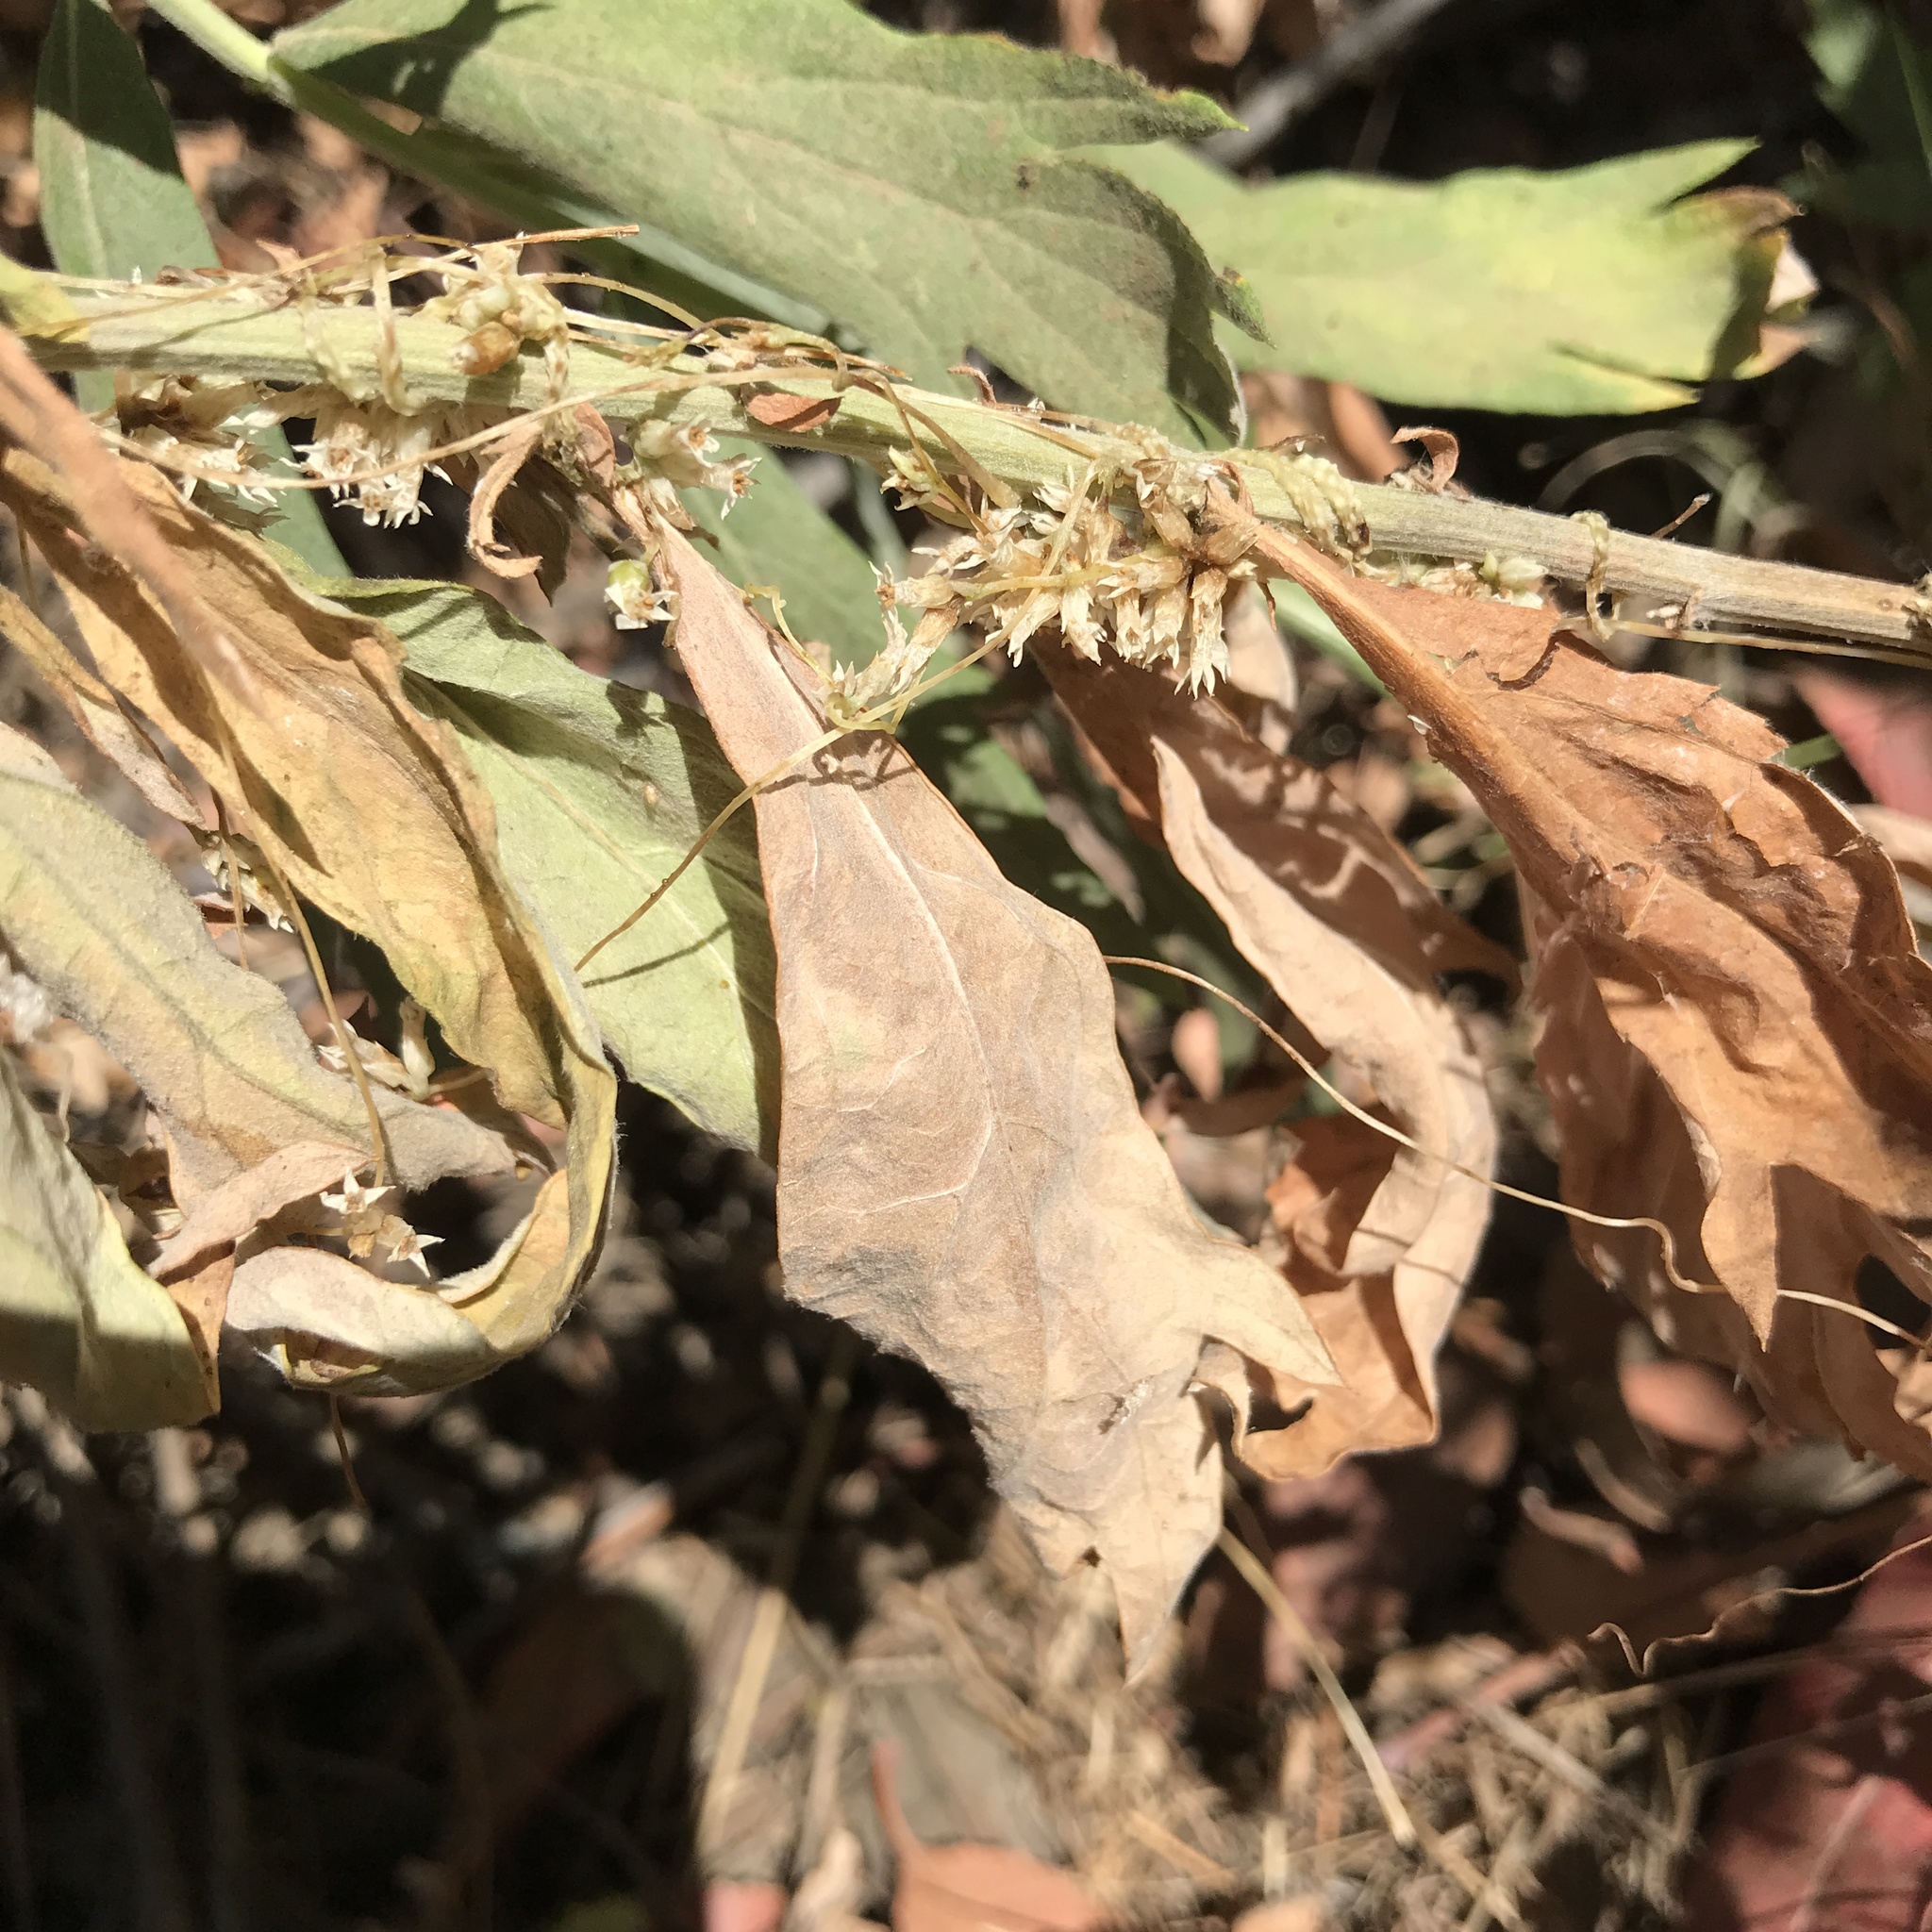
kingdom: Plantae
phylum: Tracheophyta
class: Magnoliopsida
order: Solanales
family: Convolvulaceae
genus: Cuscuta
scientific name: Cuscuta subinclusa
